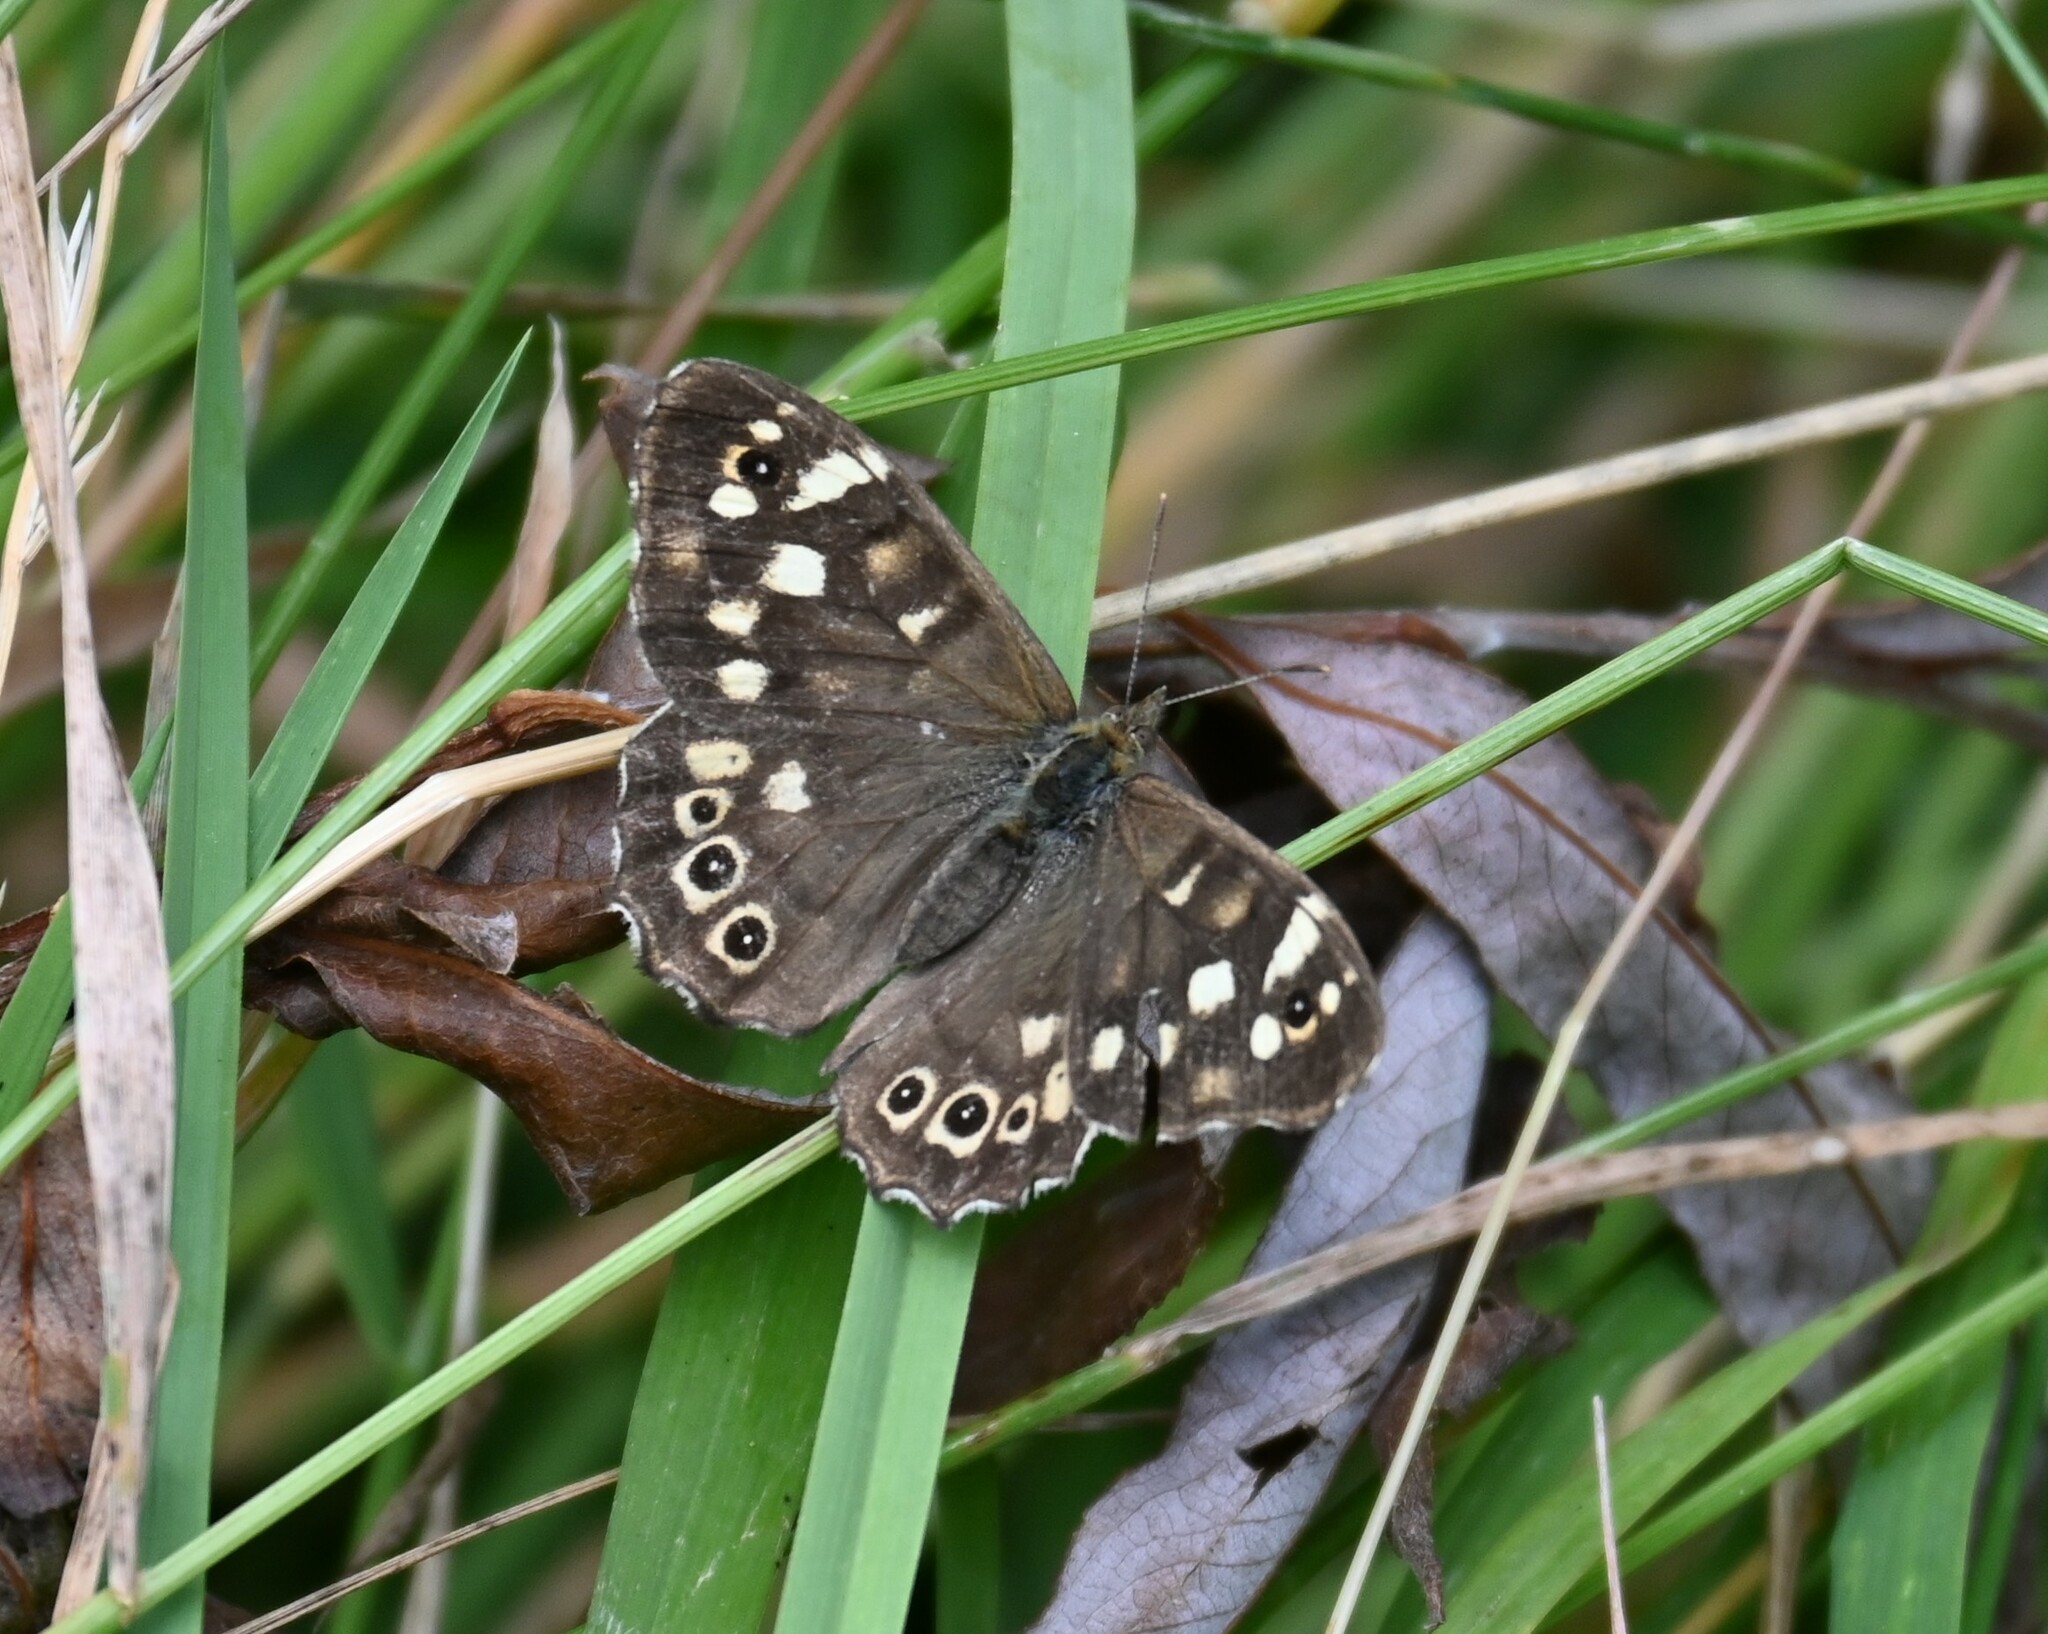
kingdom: Animalia
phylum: Arthropoda
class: Insecta
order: Lepidoptera
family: Nymphalidae
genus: Pararge
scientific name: Pararge aegeria
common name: Speckled wood
